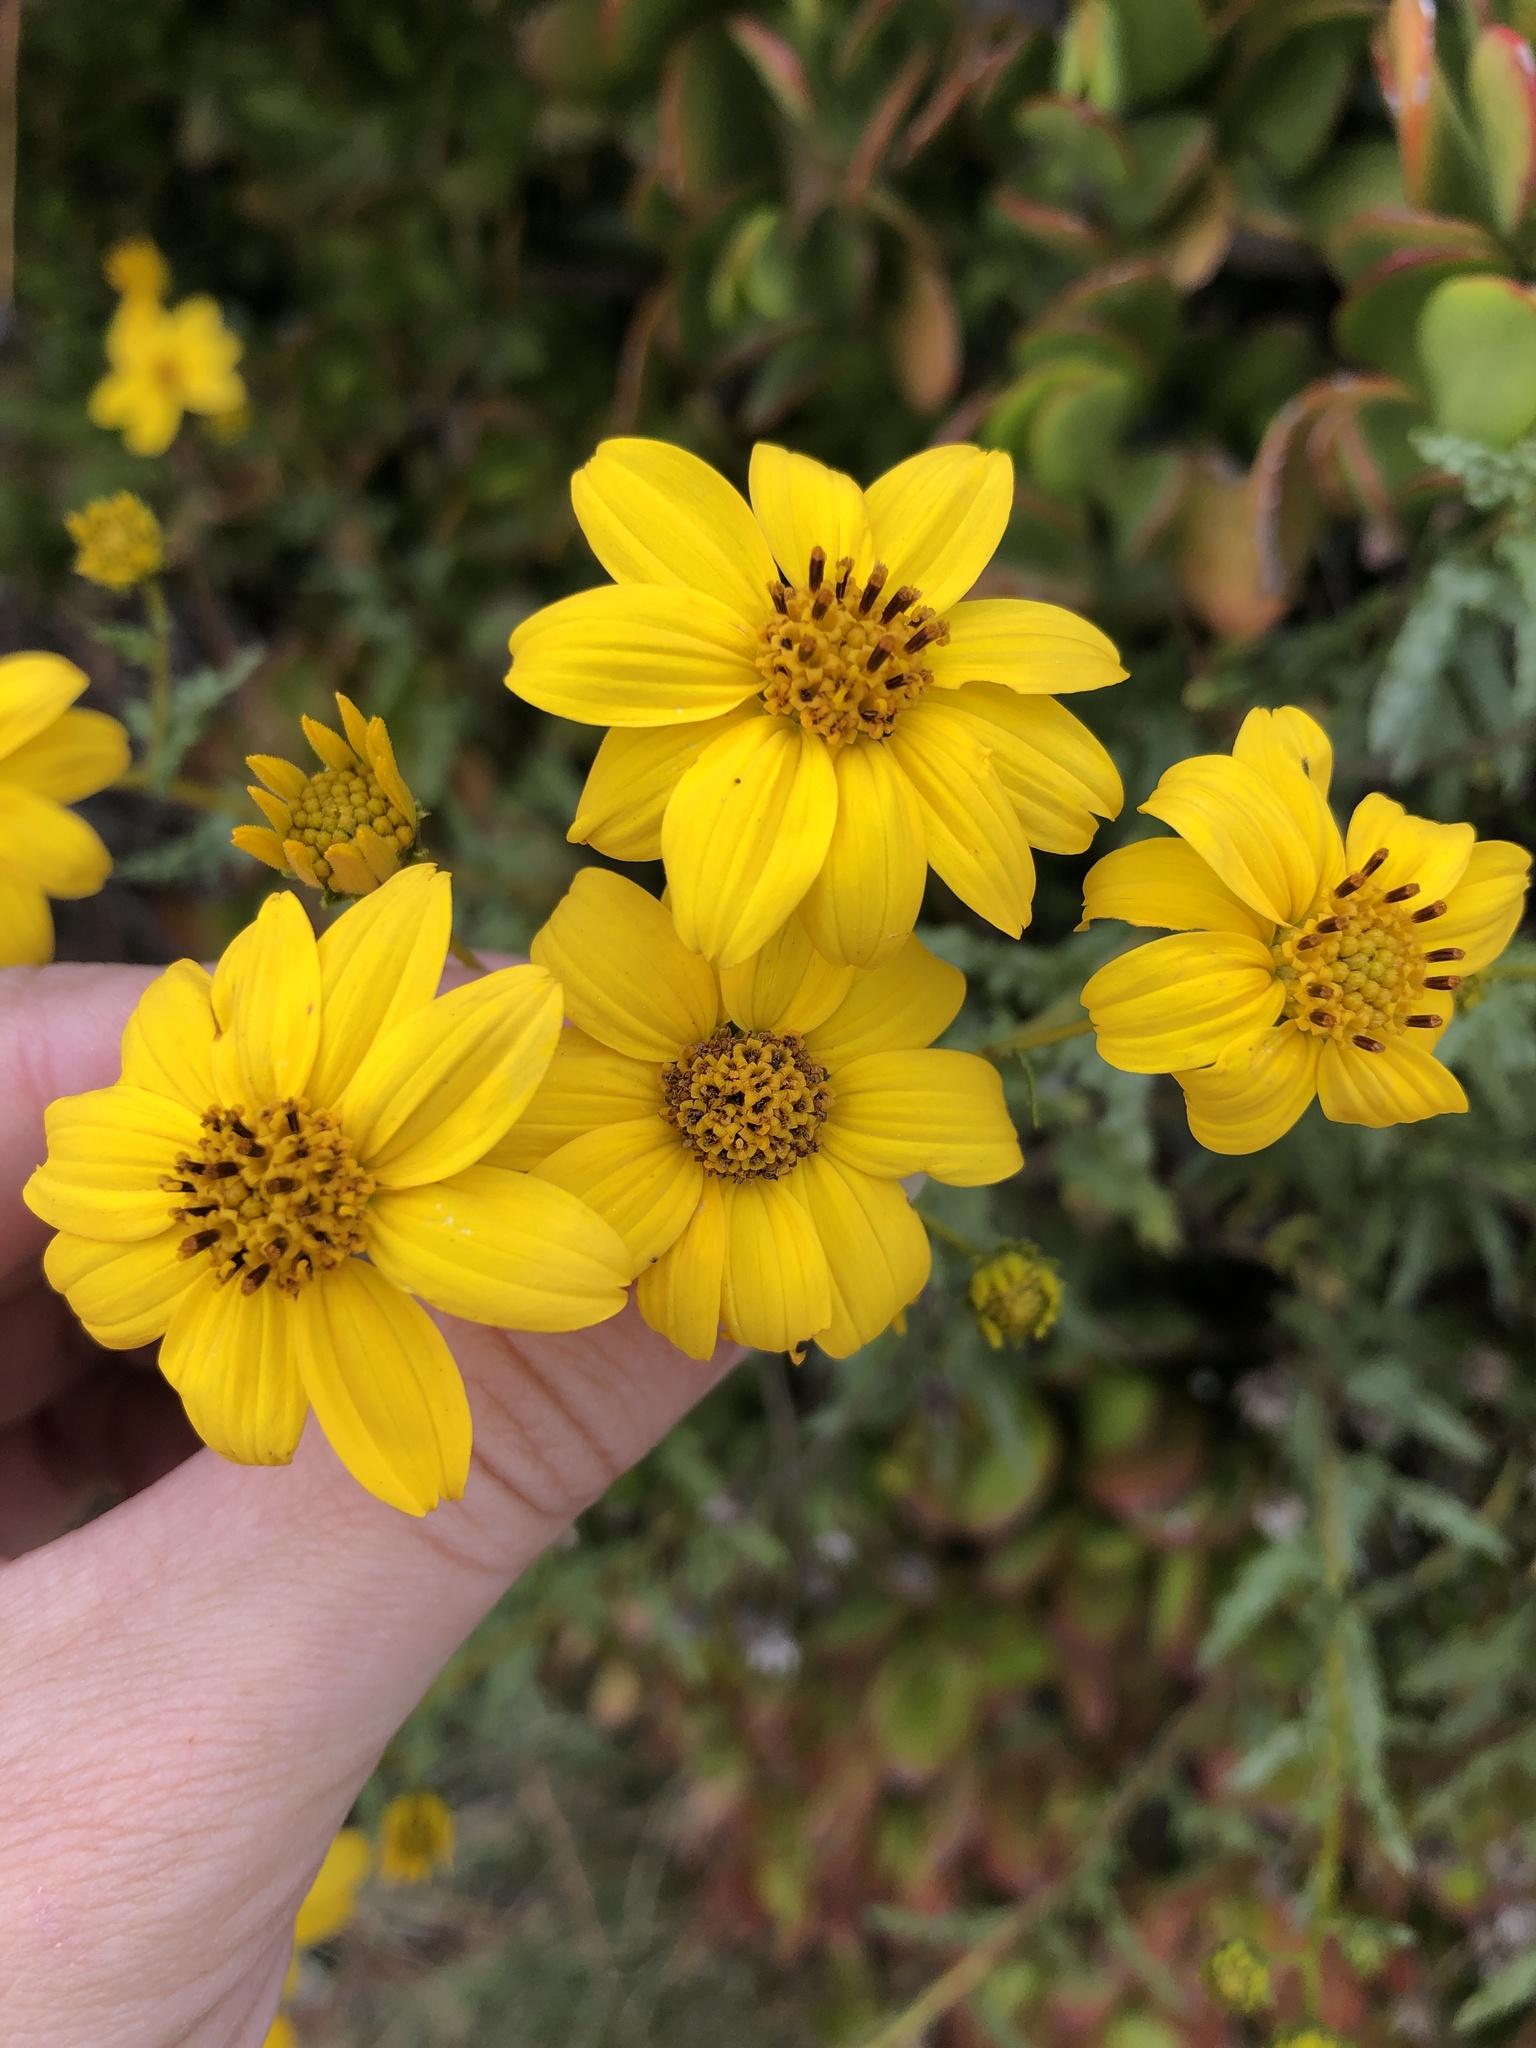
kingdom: Plantae
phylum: Tracheophyta
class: Magnoliopsida
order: Asterales
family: Asteraceae
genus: Bahiopsis
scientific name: Bahiopsis laciniata
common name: San diego county viguiera
